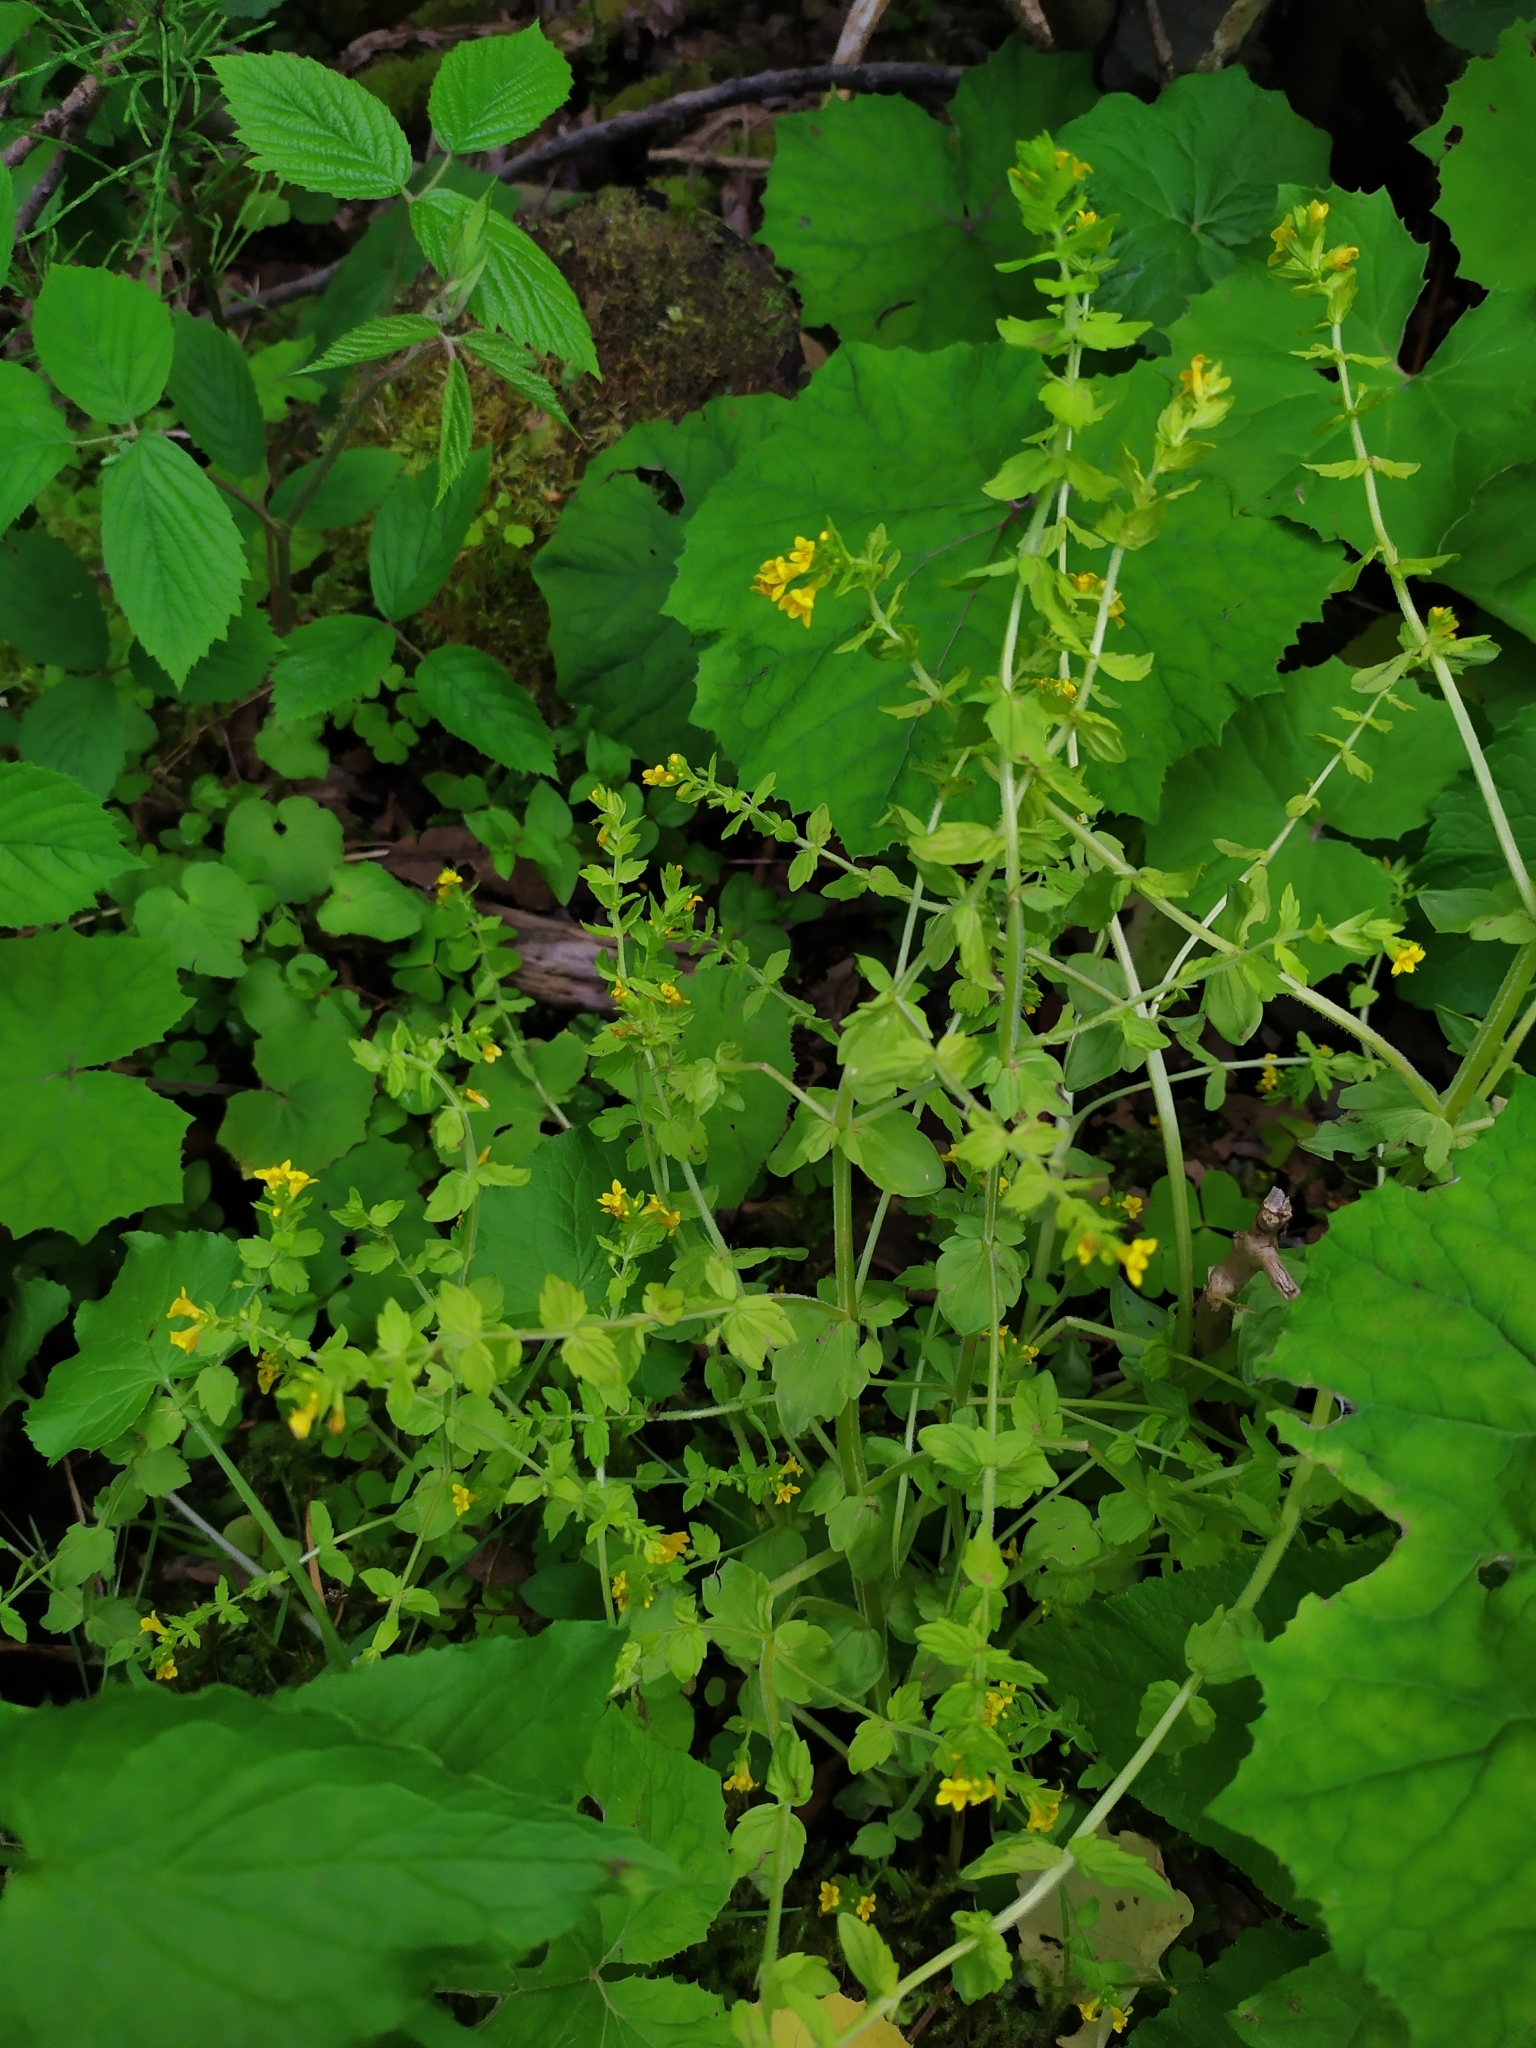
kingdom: Plantae
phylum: Tracheophyta
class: Magnoliopsida
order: Lamiales
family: Orobanchaceae
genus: Tozzia
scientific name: Tozzia alpina
